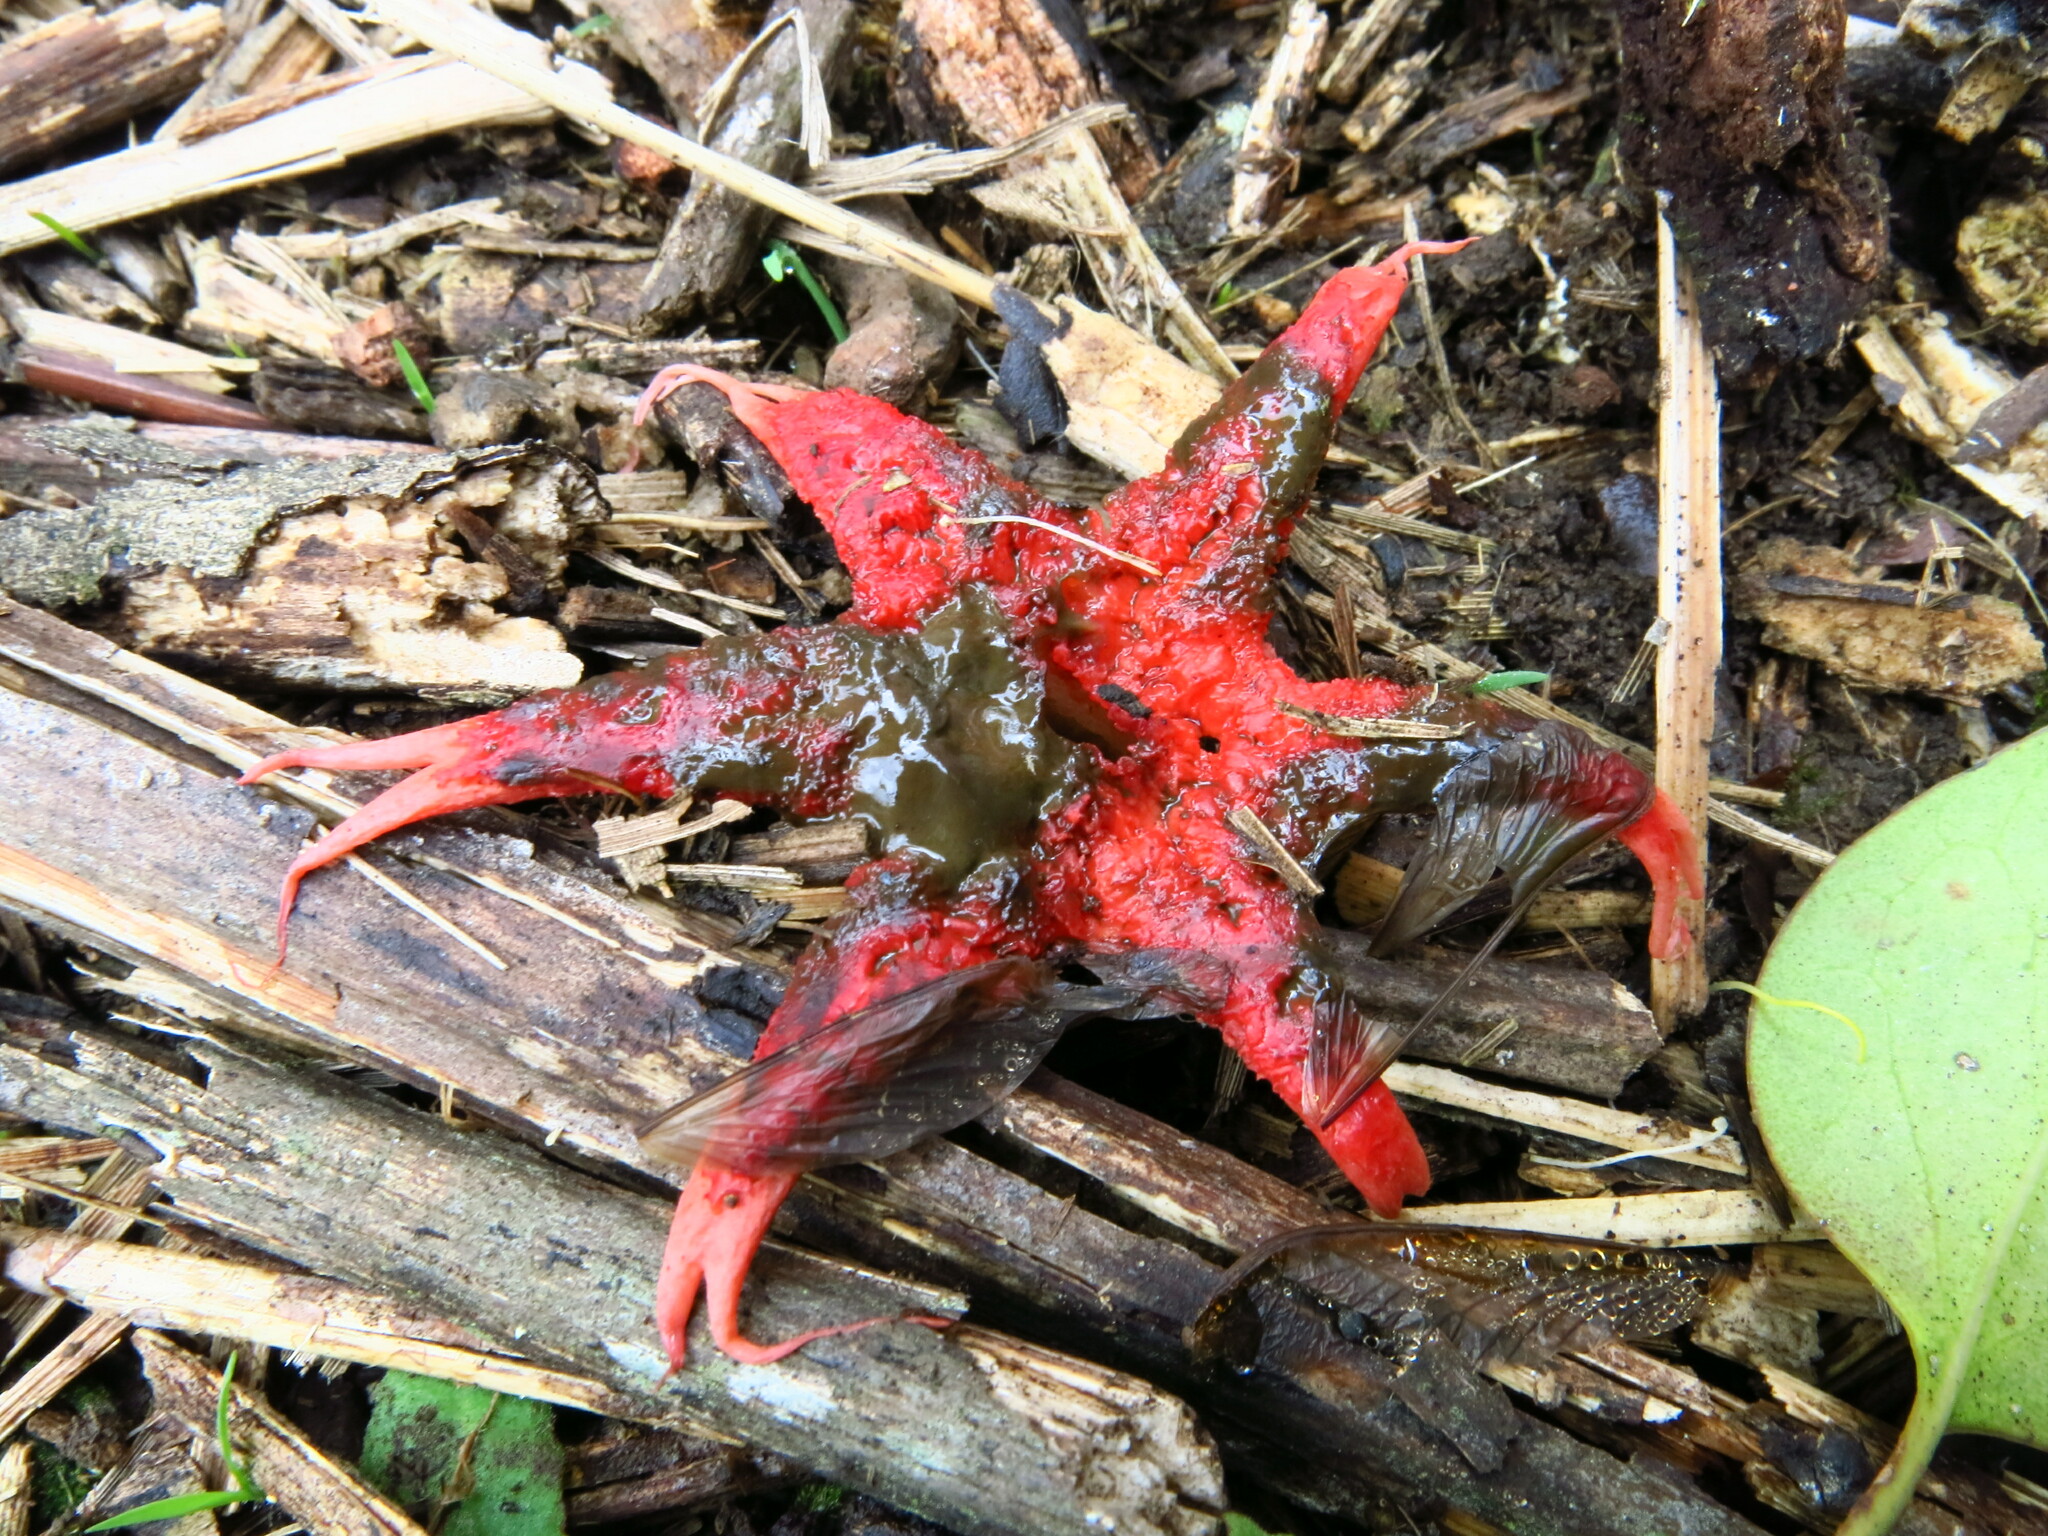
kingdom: Fungi
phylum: Basidiomycota
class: Agaricomycetes
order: Phallales
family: Phallaceae
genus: Aseroe
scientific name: Aseroe rubra
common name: Starfish fungus
